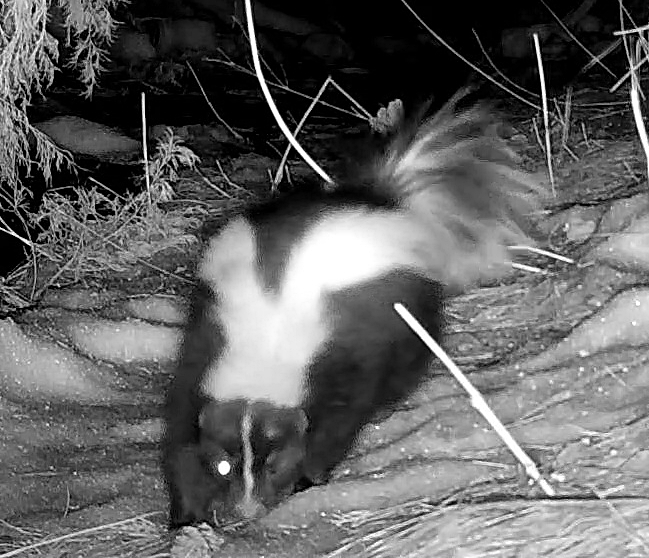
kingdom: Animalia
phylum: Chordata
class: Mammalia
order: Carnivora
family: Mephitidae
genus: Mephitis
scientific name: Mephitis mephitis
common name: Striped skunk
